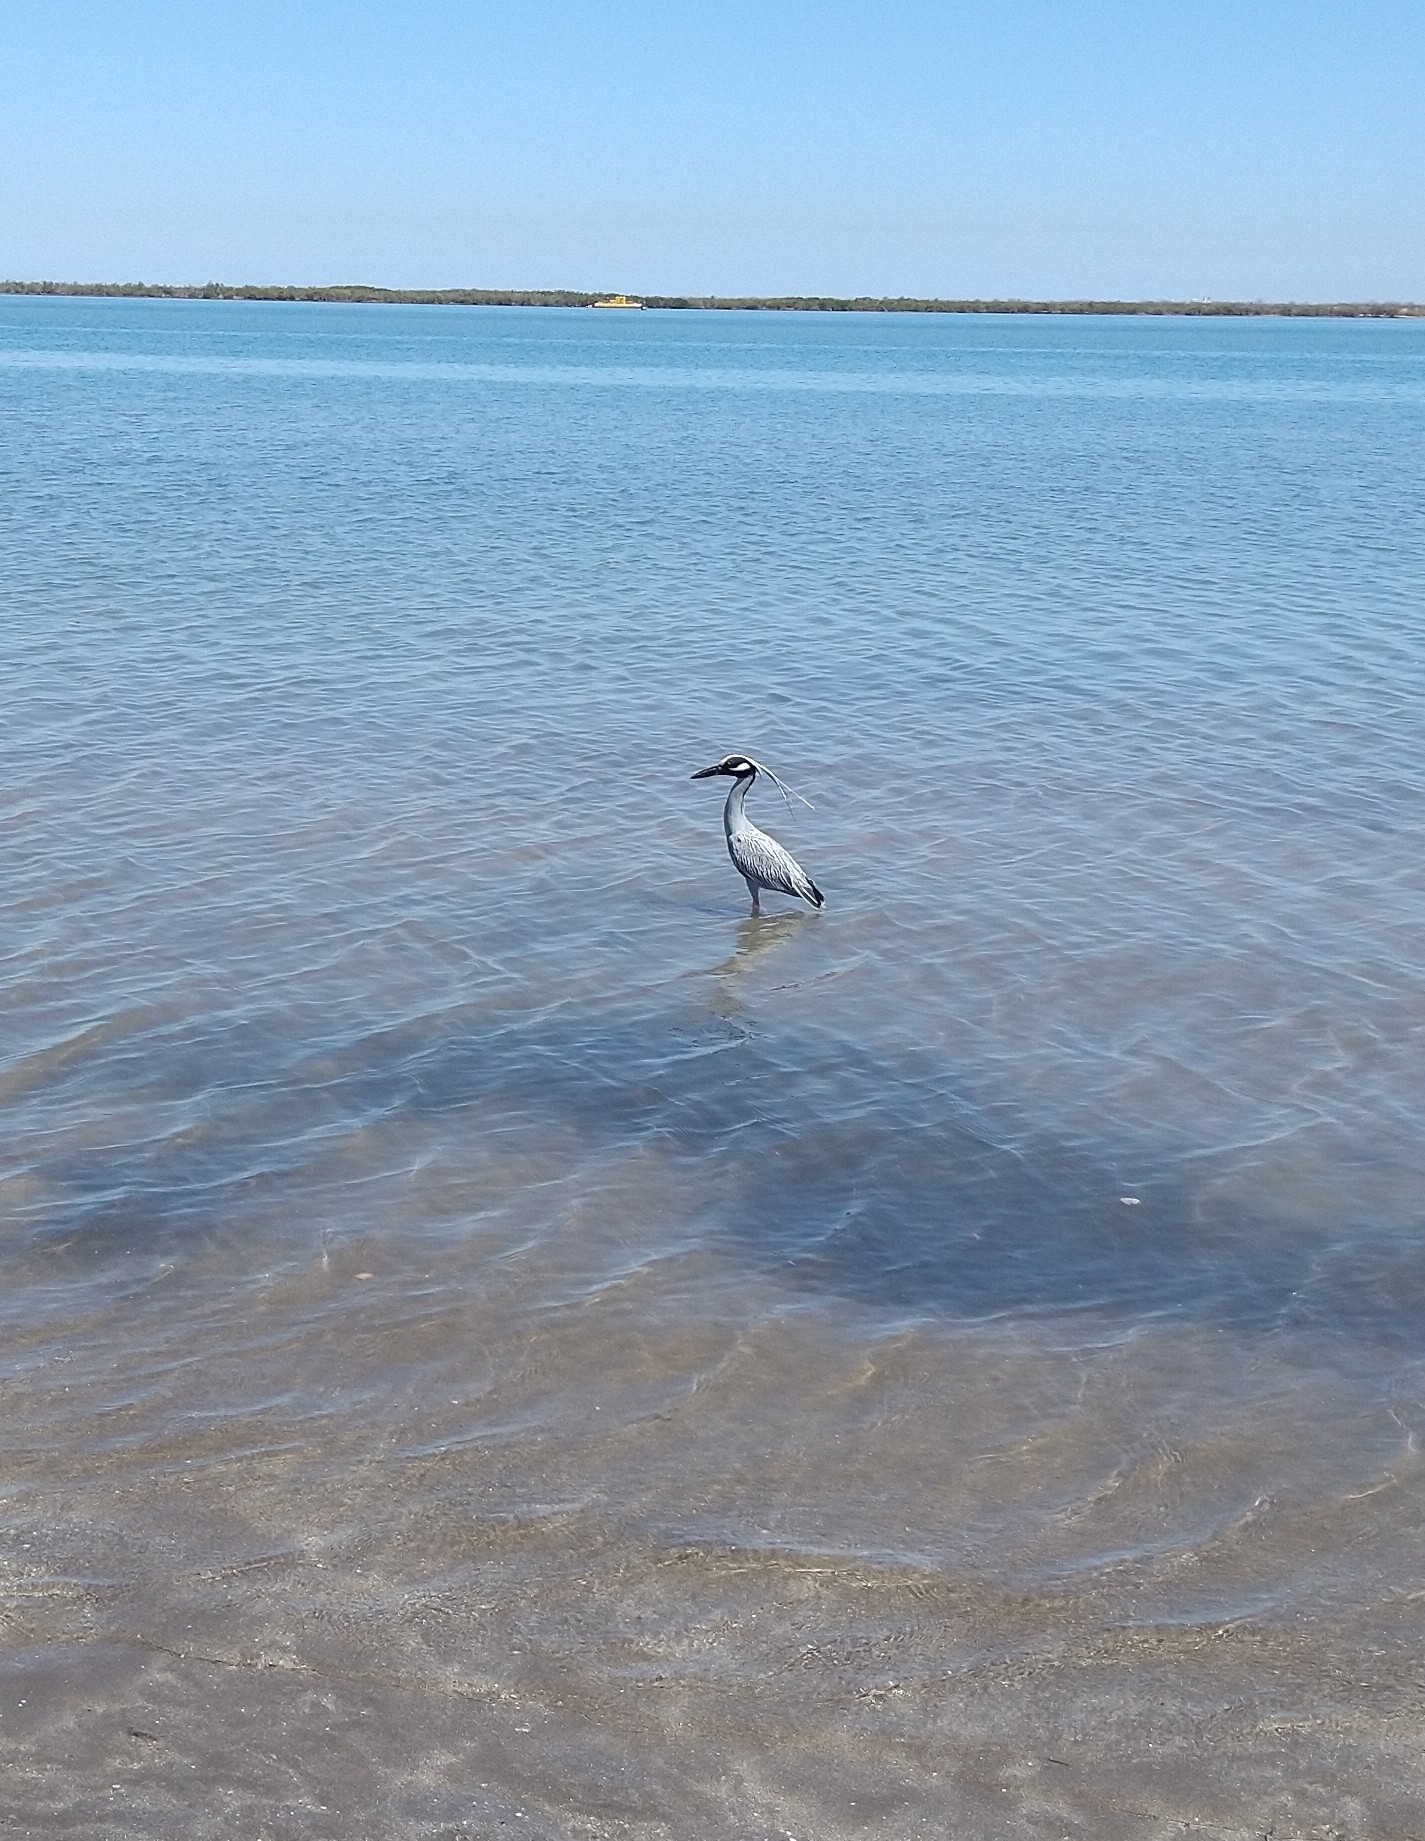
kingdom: Animalia
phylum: Chordata
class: Aves
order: Pelecaniformes
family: Ardeidae
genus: Nyctanassa
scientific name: Nyctanassa violacea
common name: Yellow-crowned night heron
